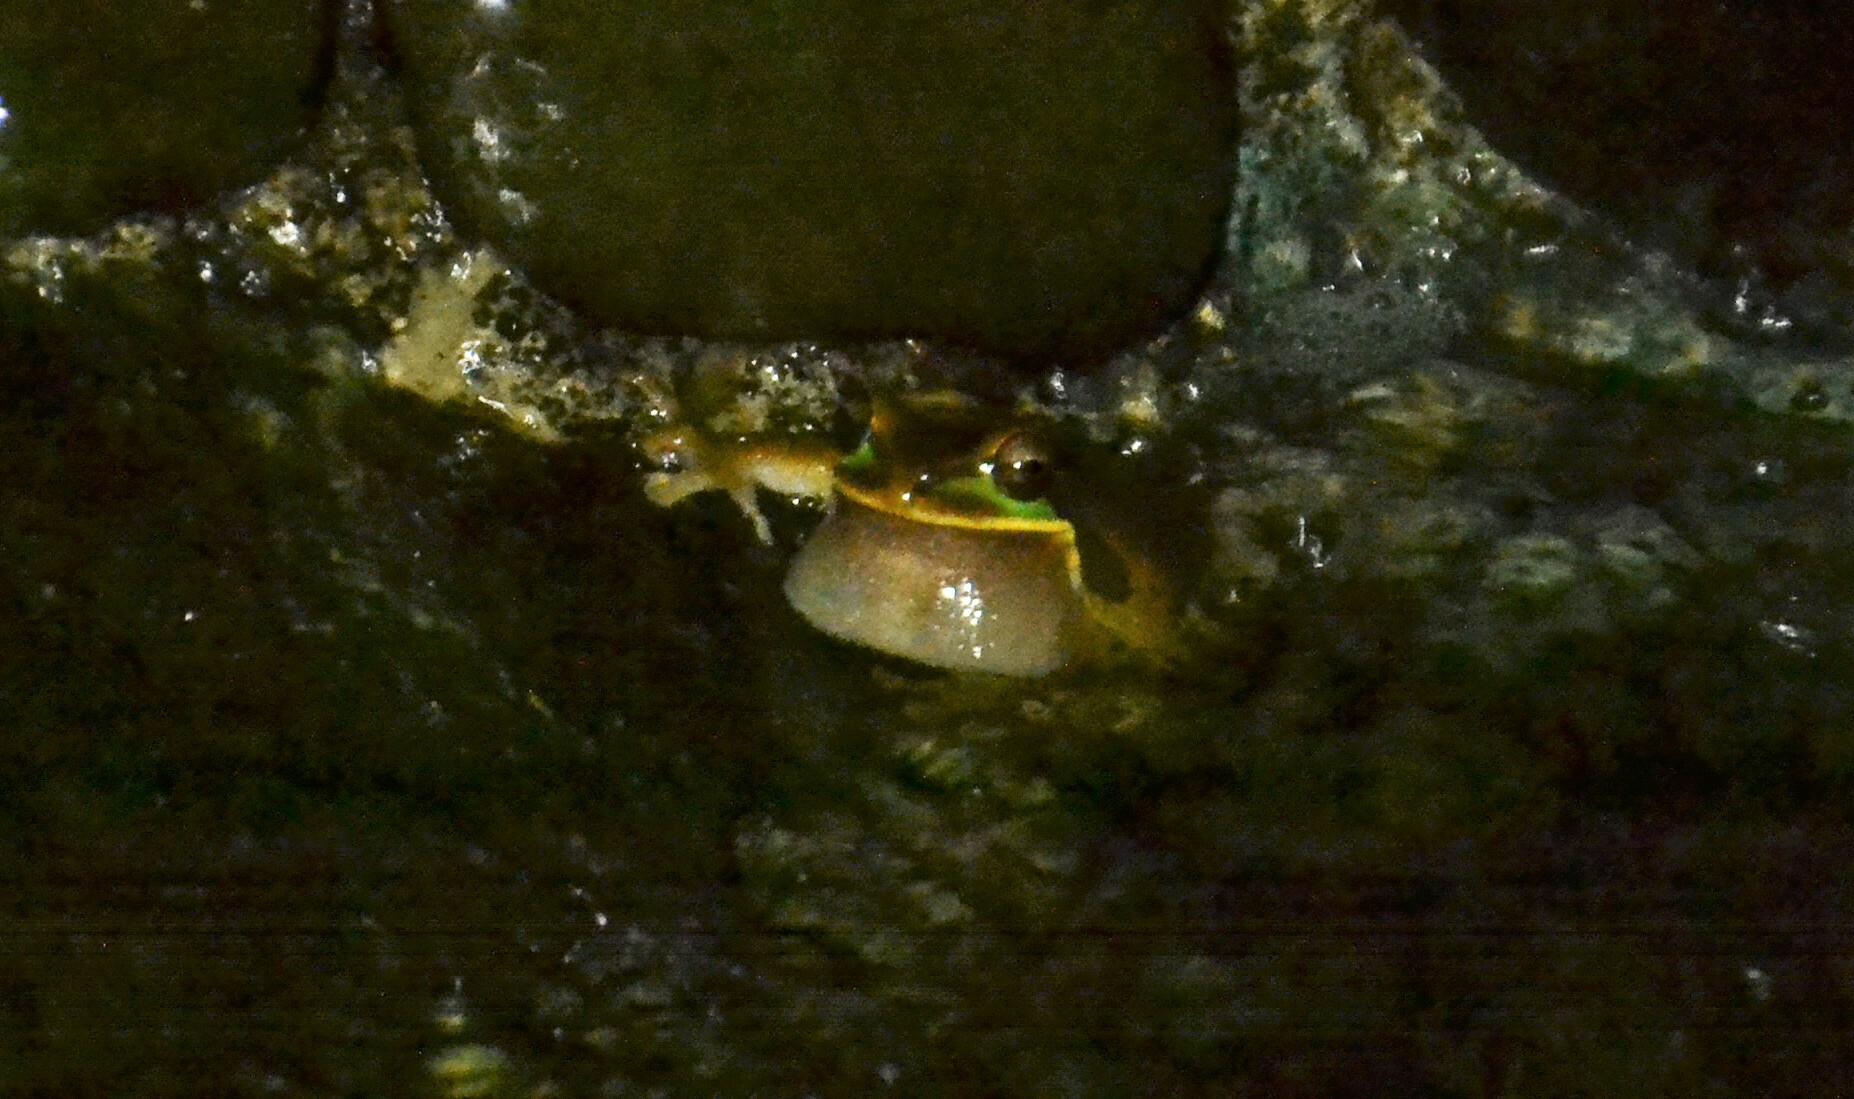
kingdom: Animalia
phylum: Chordata
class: Amphibia
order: Anura
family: Hylidae
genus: Smilisca
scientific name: Smilisca phaeota
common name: Central american smilisca
